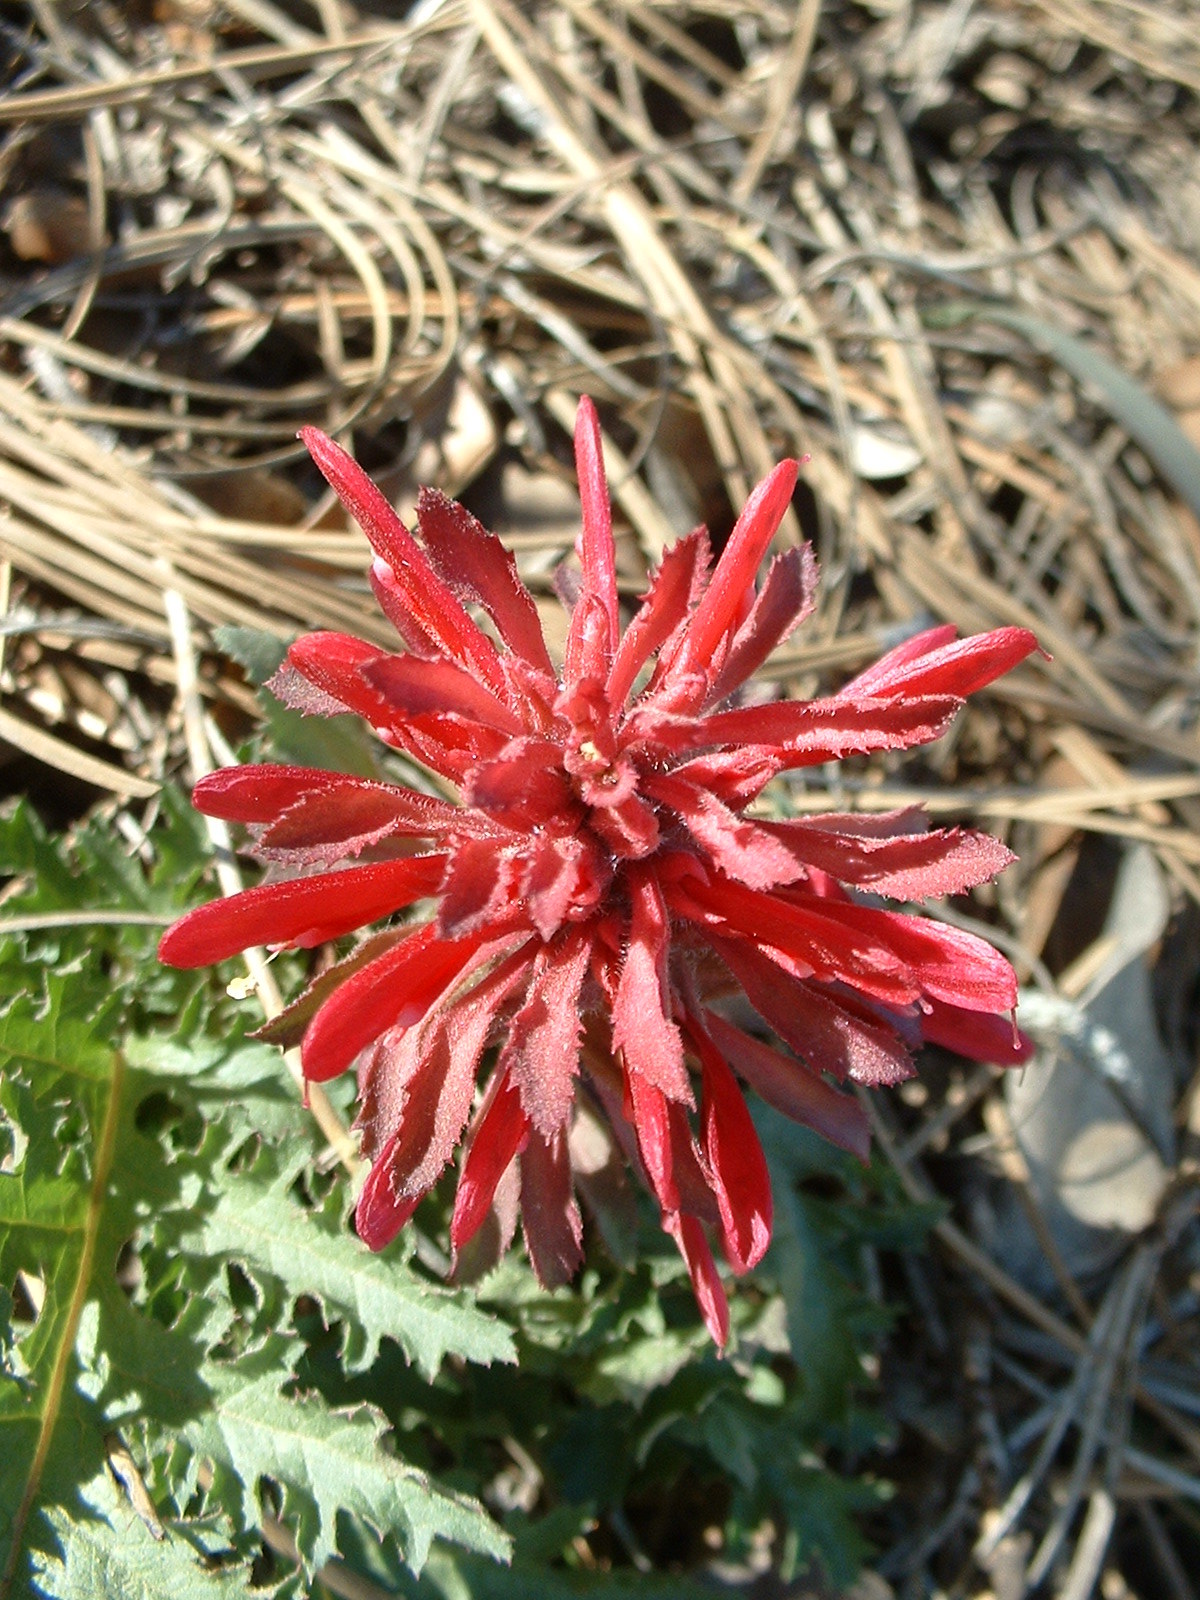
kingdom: Plantae
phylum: Tracheophyta
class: Magnoliopsida
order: Lamiales
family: Orobanchaceae
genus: Pedicularis
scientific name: Pedicularis densiflora
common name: Indian warrior
